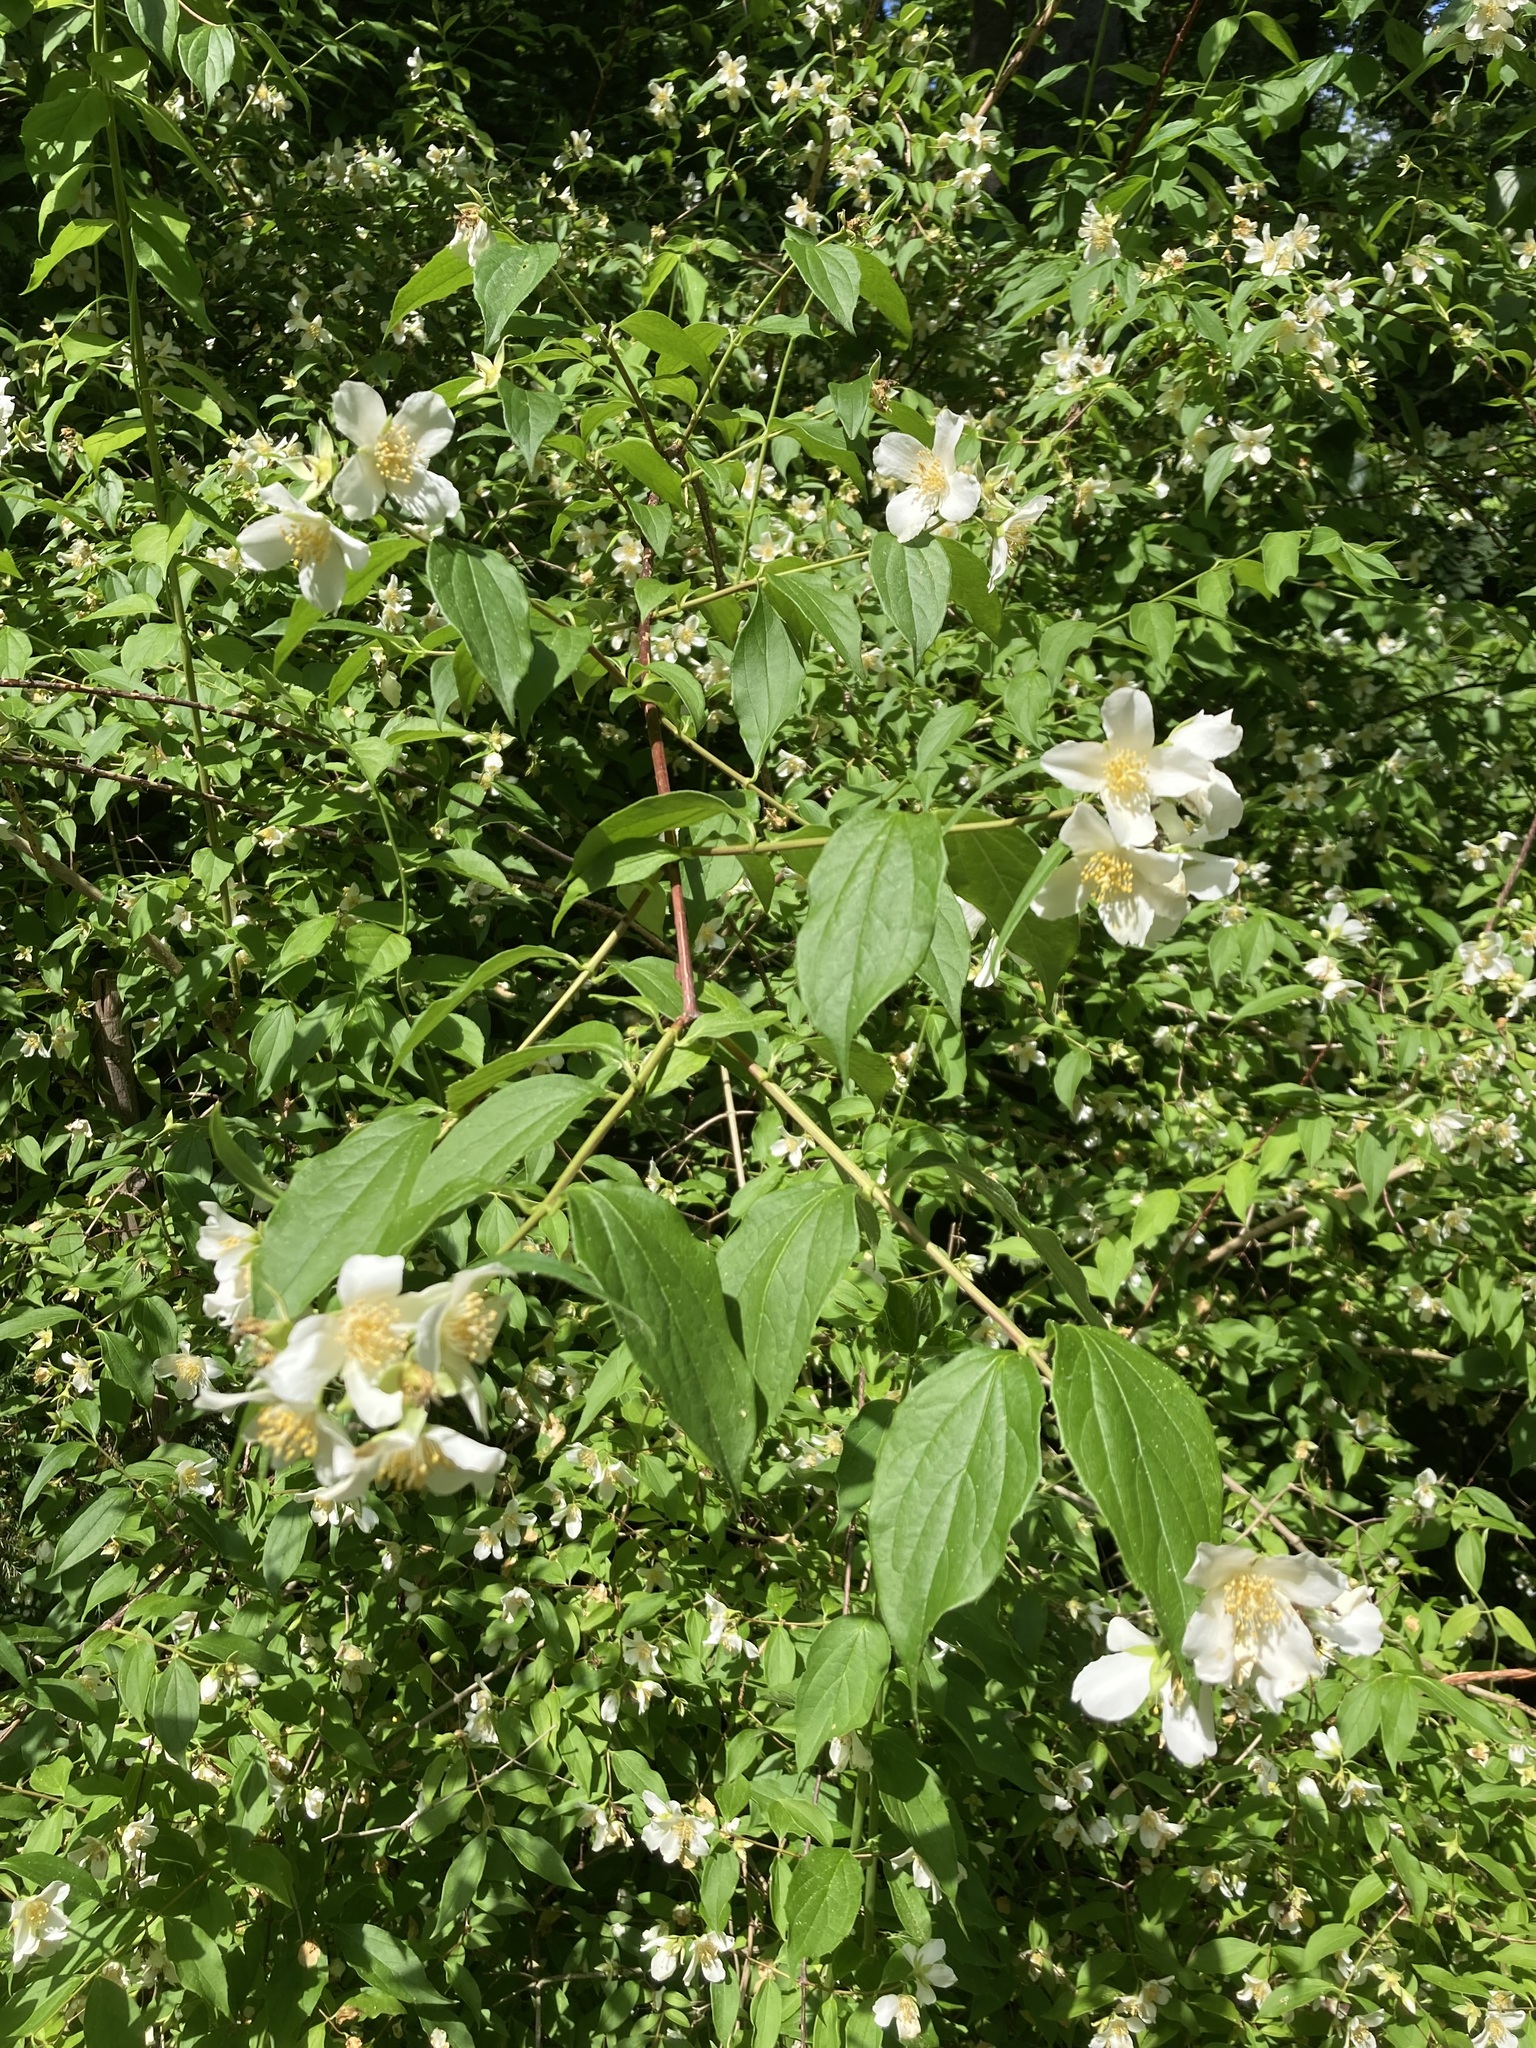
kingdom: Plantae
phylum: Tracheophyta
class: Magnoliopsida
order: Cornales
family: Hydrangeaceae
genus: Philadelphus
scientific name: Philadelphus inodorus
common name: Scentless mock-orange
